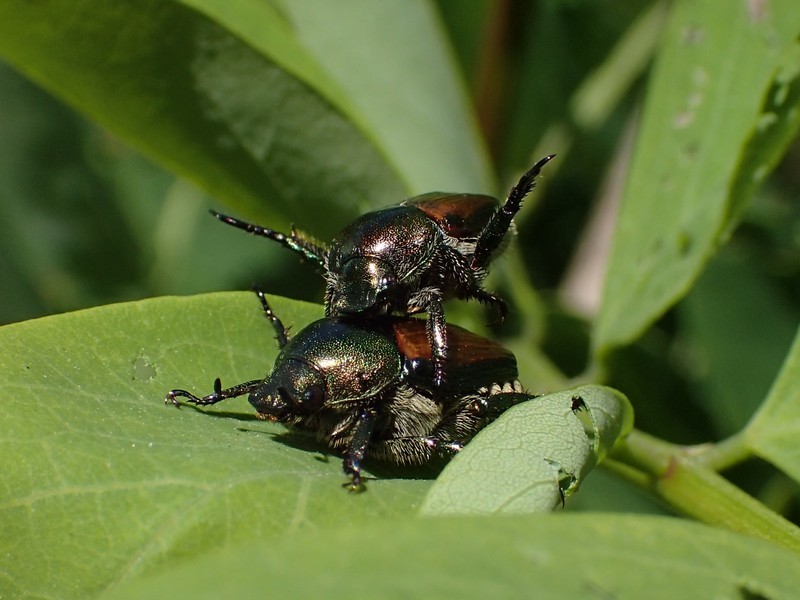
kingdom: Animalia
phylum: Arthropoda
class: Insecta
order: Coleoptera
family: Scarabaeidae
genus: Popillia
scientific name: Popillia japonica
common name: Japanese beetle
